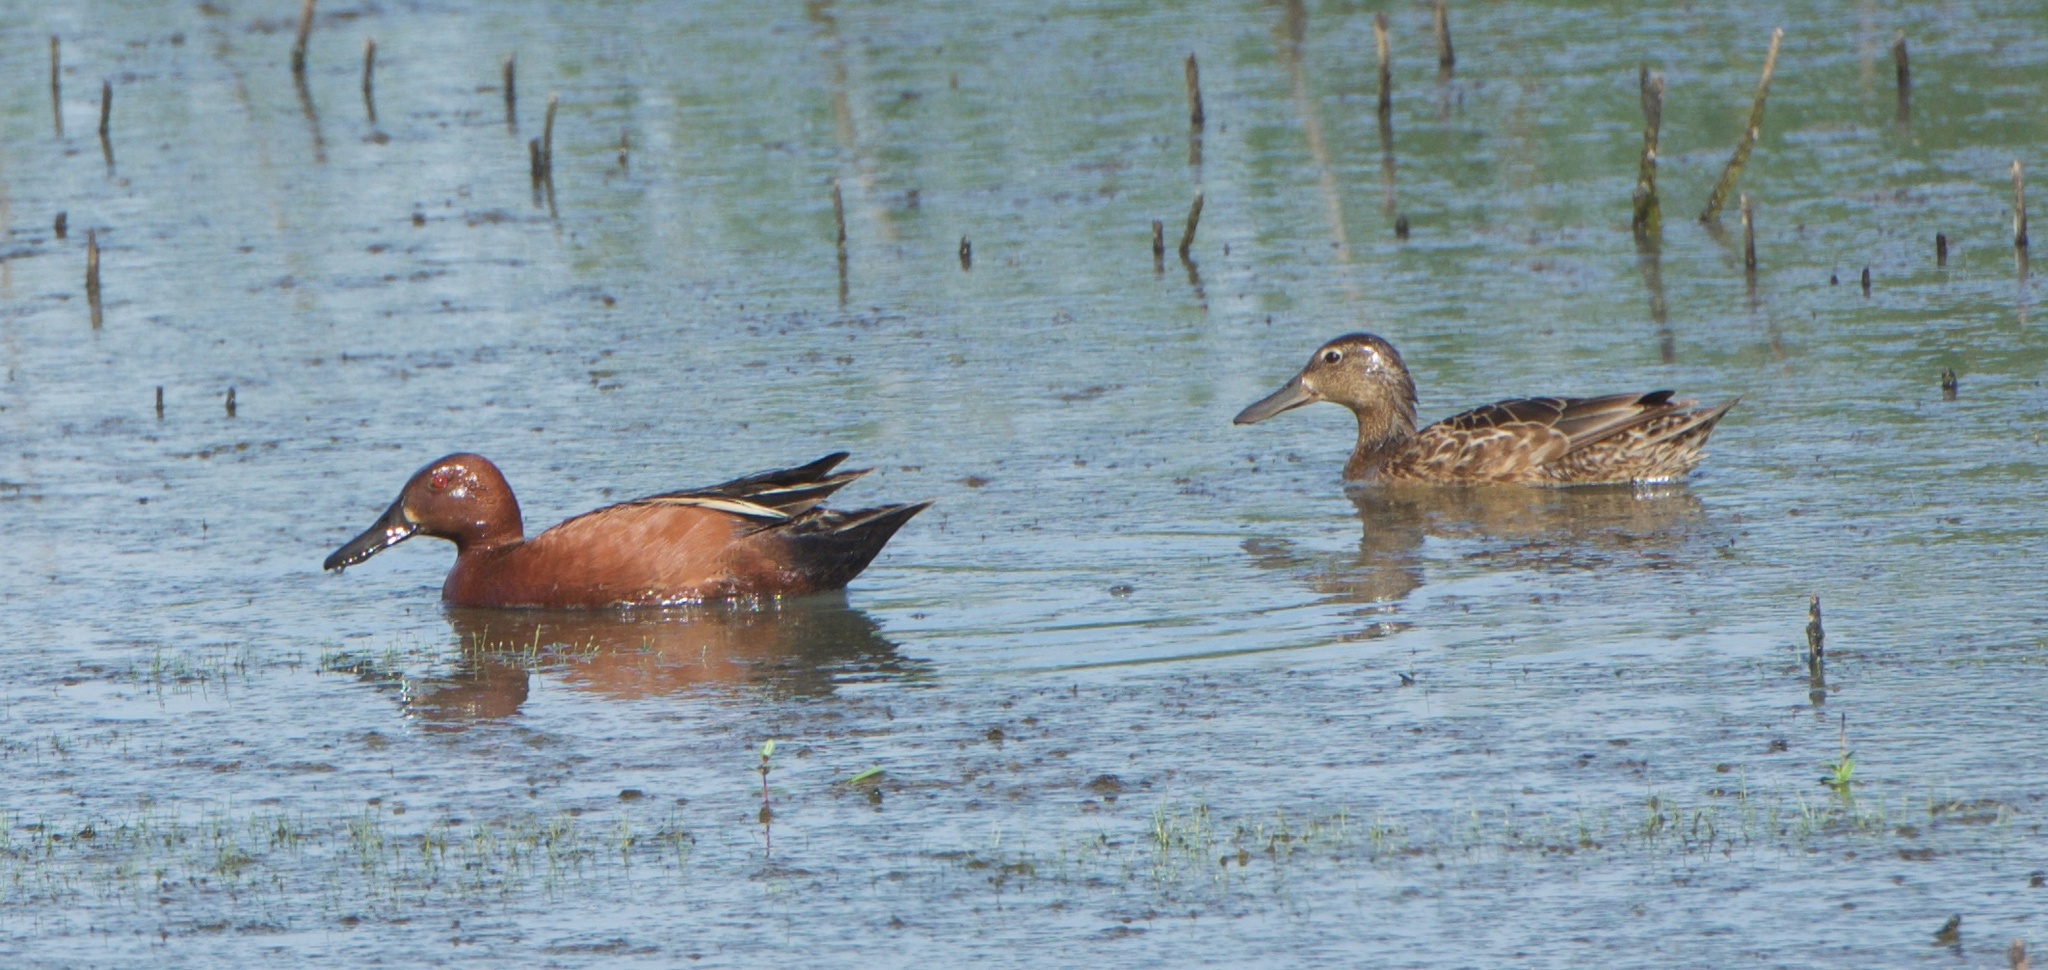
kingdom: Animalia
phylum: Chordata
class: Aves
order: Anseriformes
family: Anatidae
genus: Spatula
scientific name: Spatula cyanoptera
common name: Cinnamon teal
